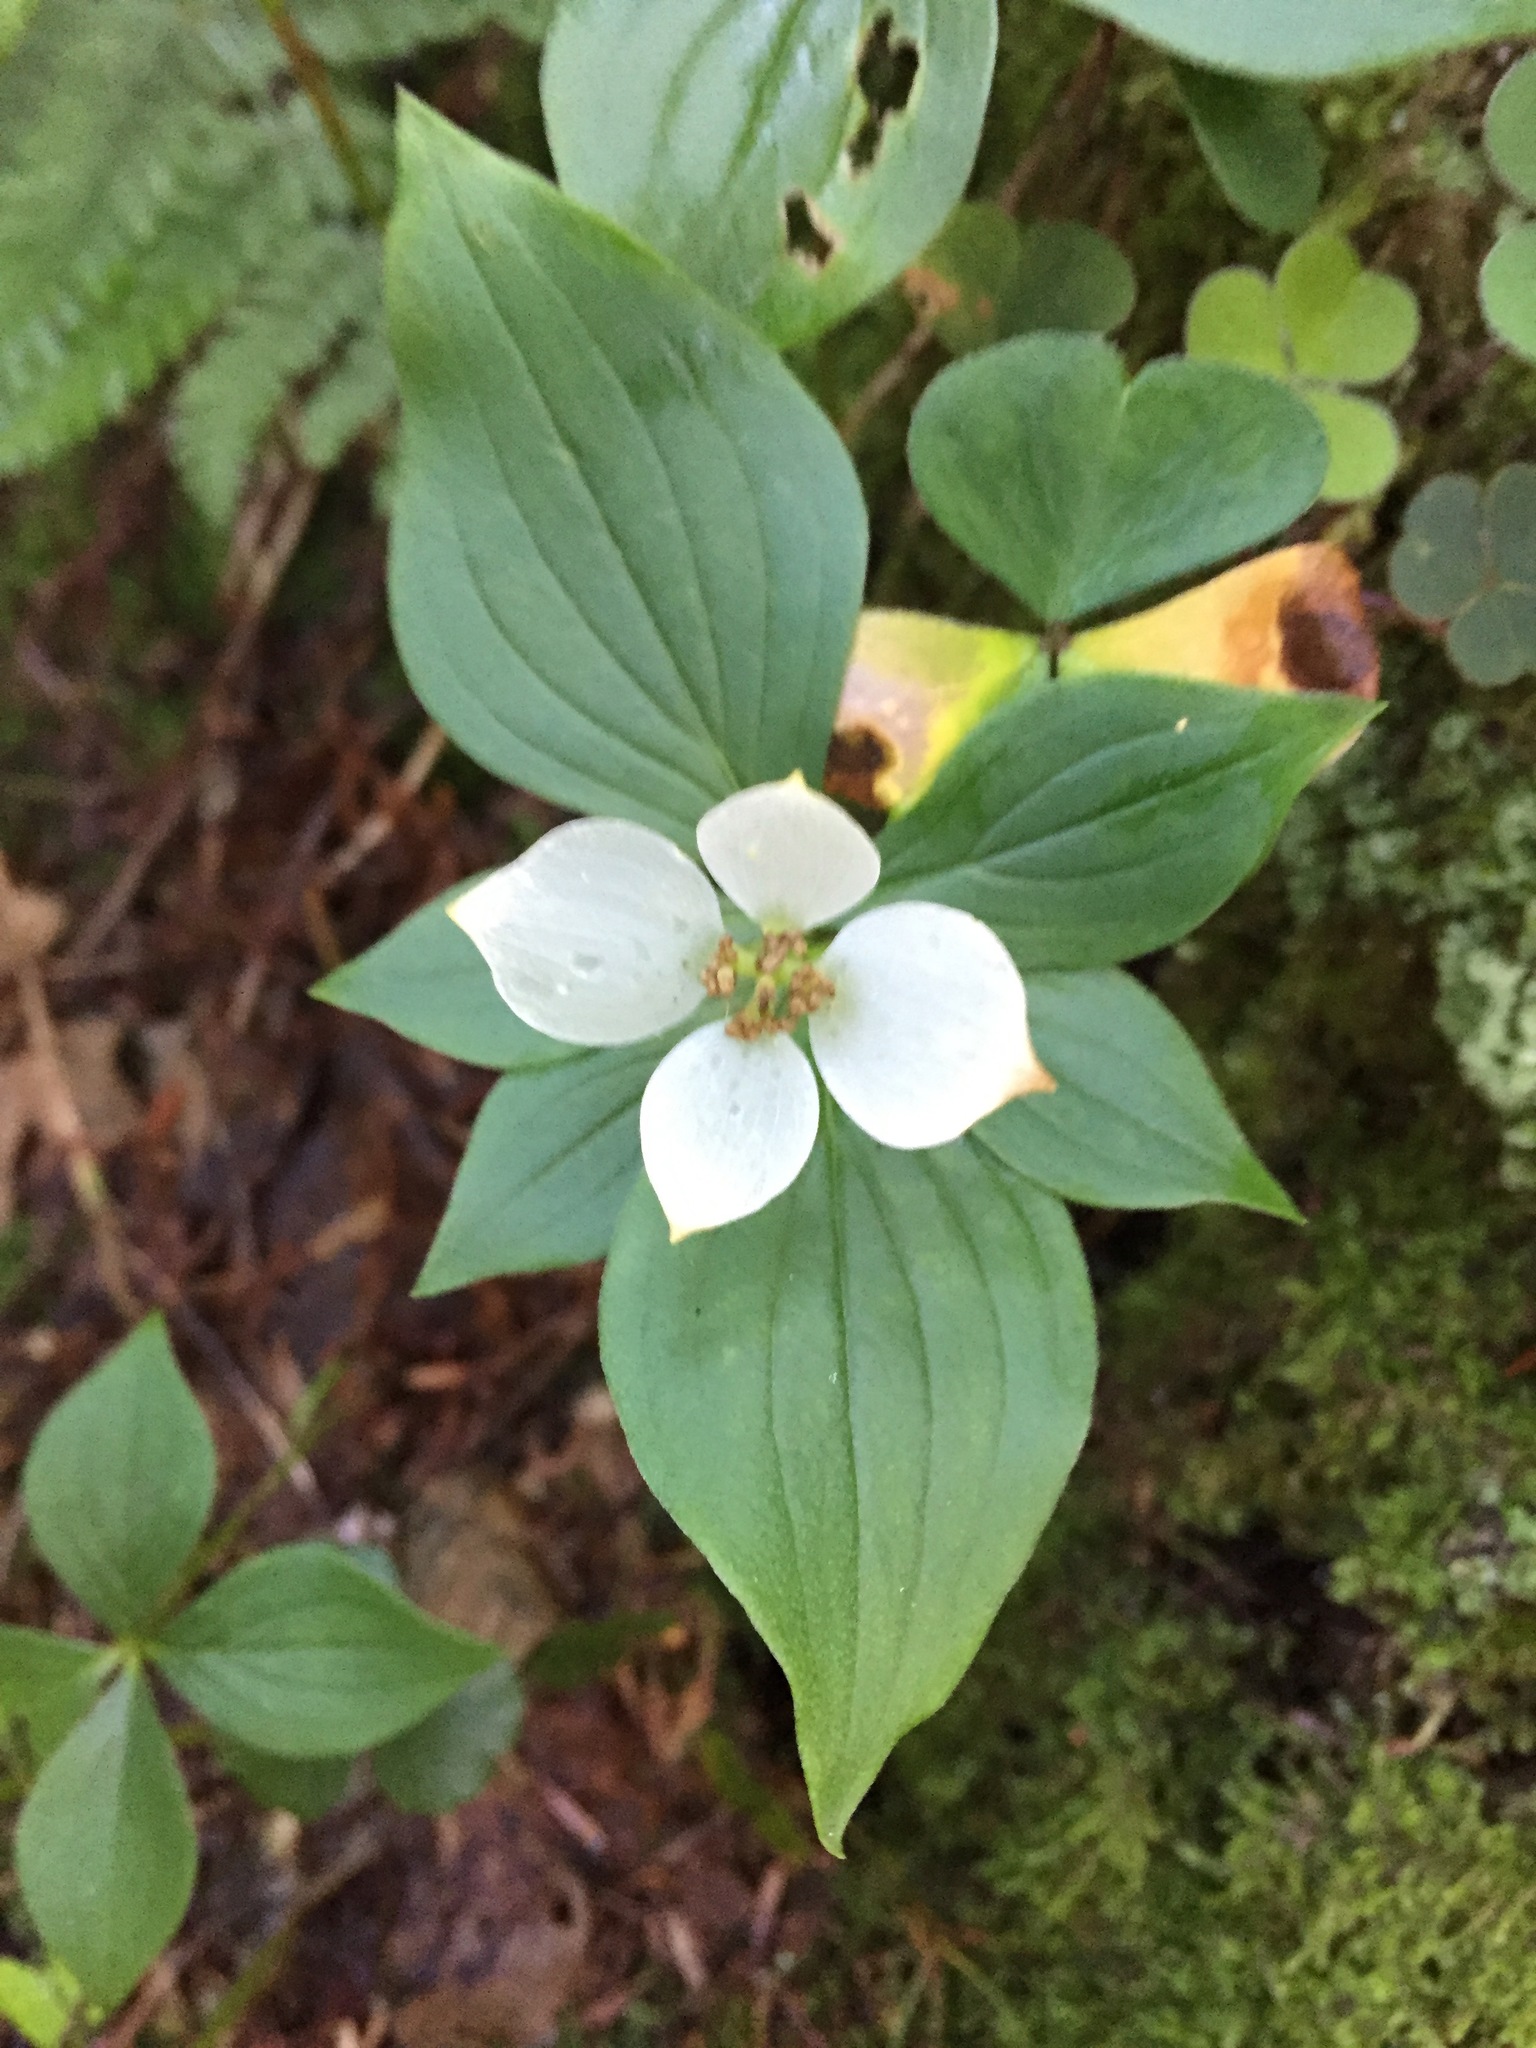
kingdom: Plantae
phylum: Tracheophyta
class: Magnoliopsida
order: Cornales
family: Cornaceae
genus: Cornus
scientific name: Cornus canadensis
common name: Creeping dogwood
